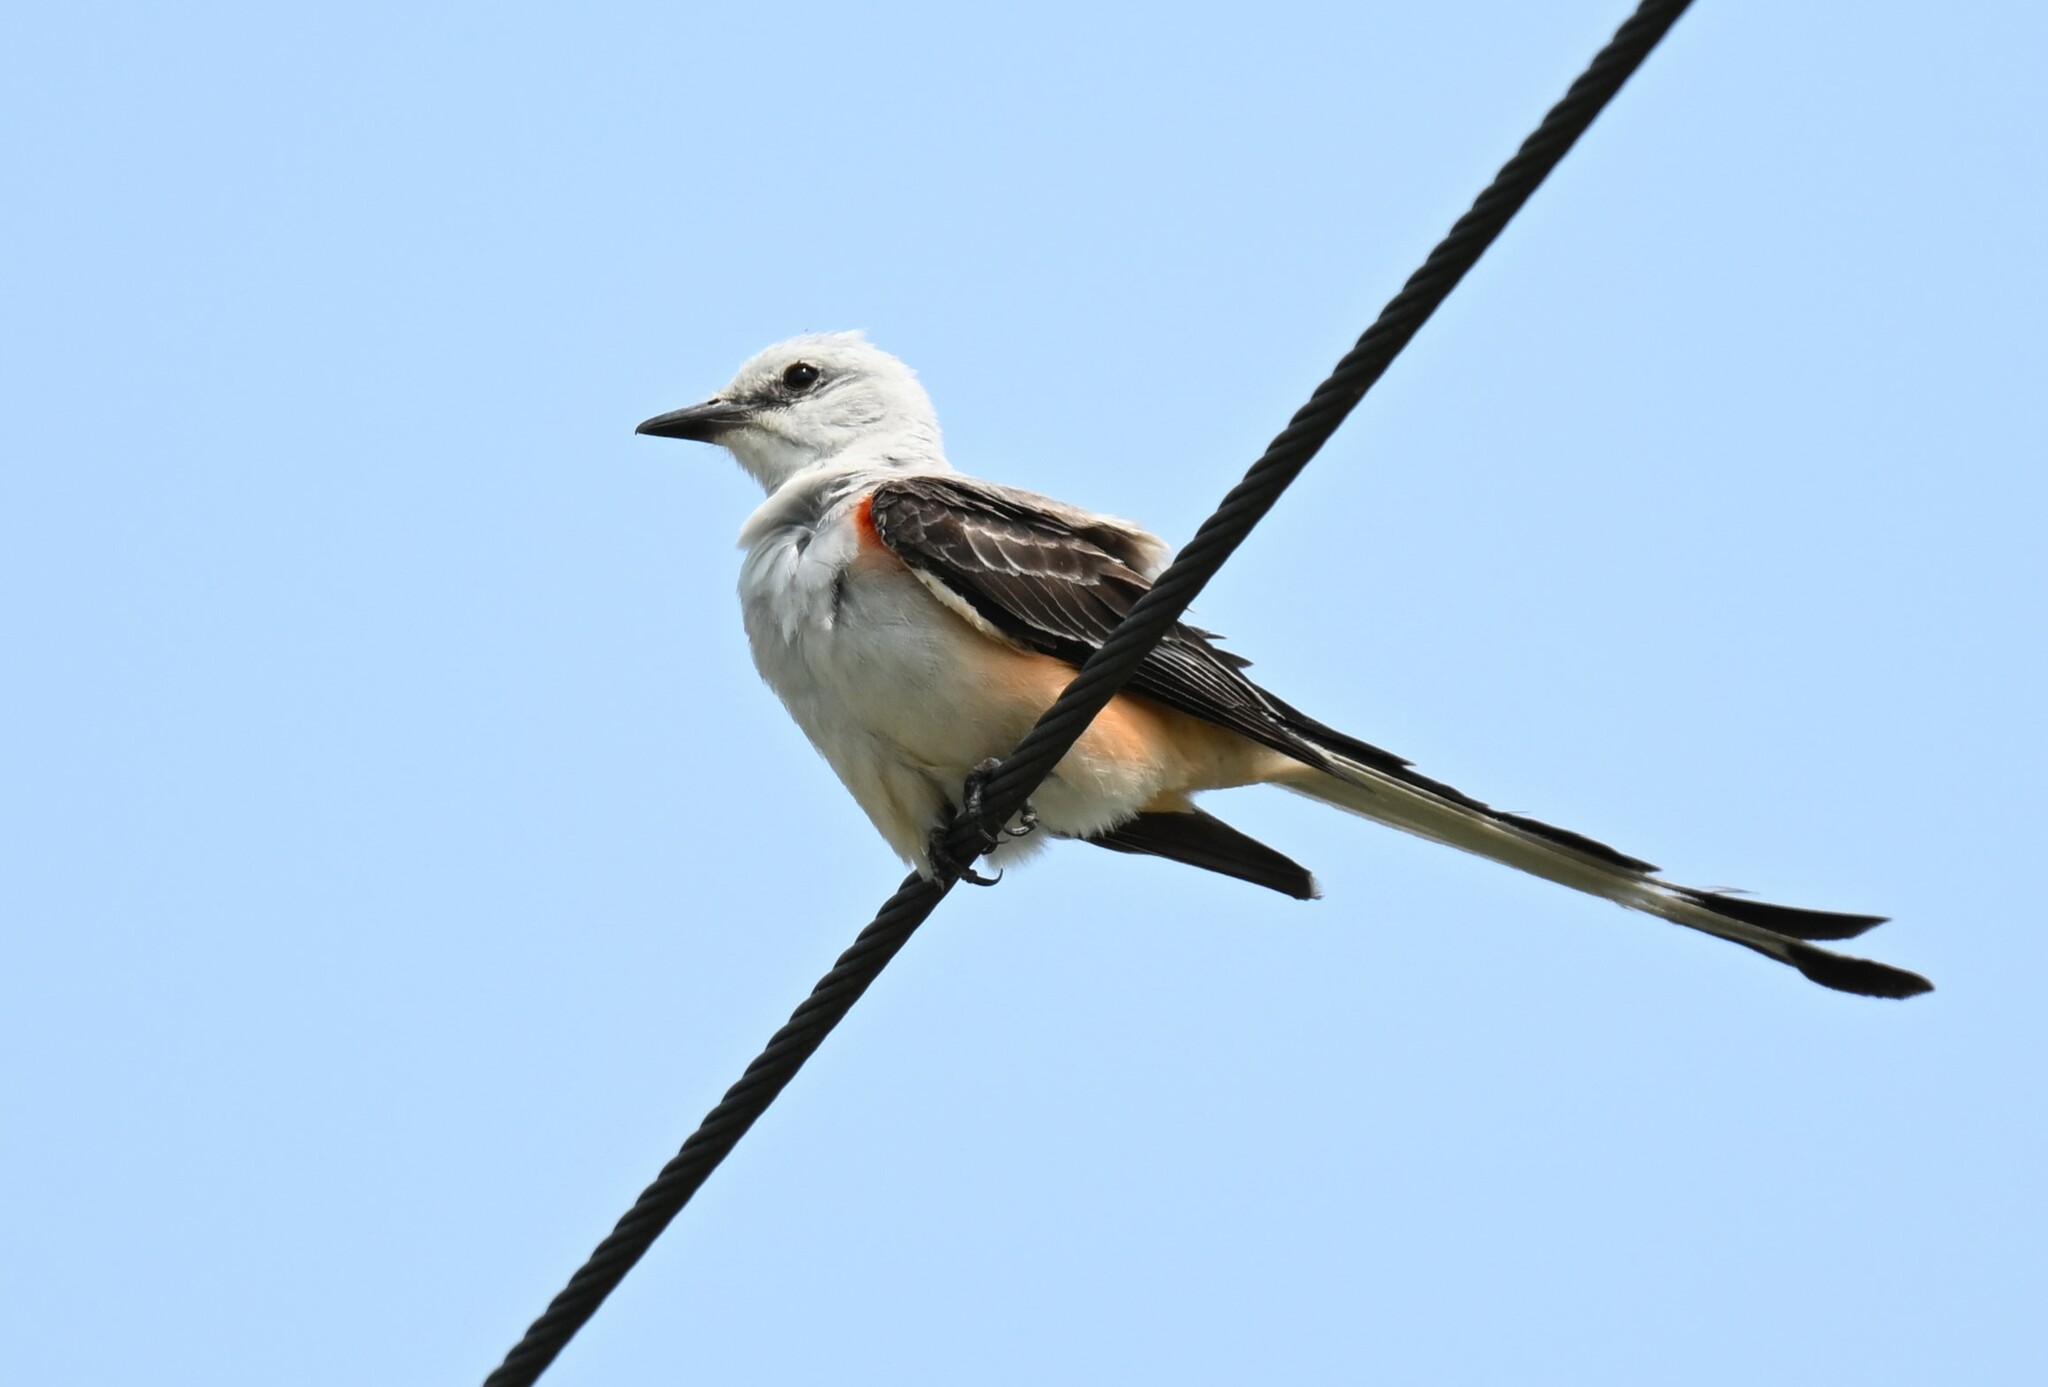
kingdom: Animalia
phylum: Chordata
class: Aves
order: Passeriformes
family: Tyrannidae
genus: Tyrannus
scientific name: Tyrannus forficatus
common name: Scissor-tailed flycatcher
